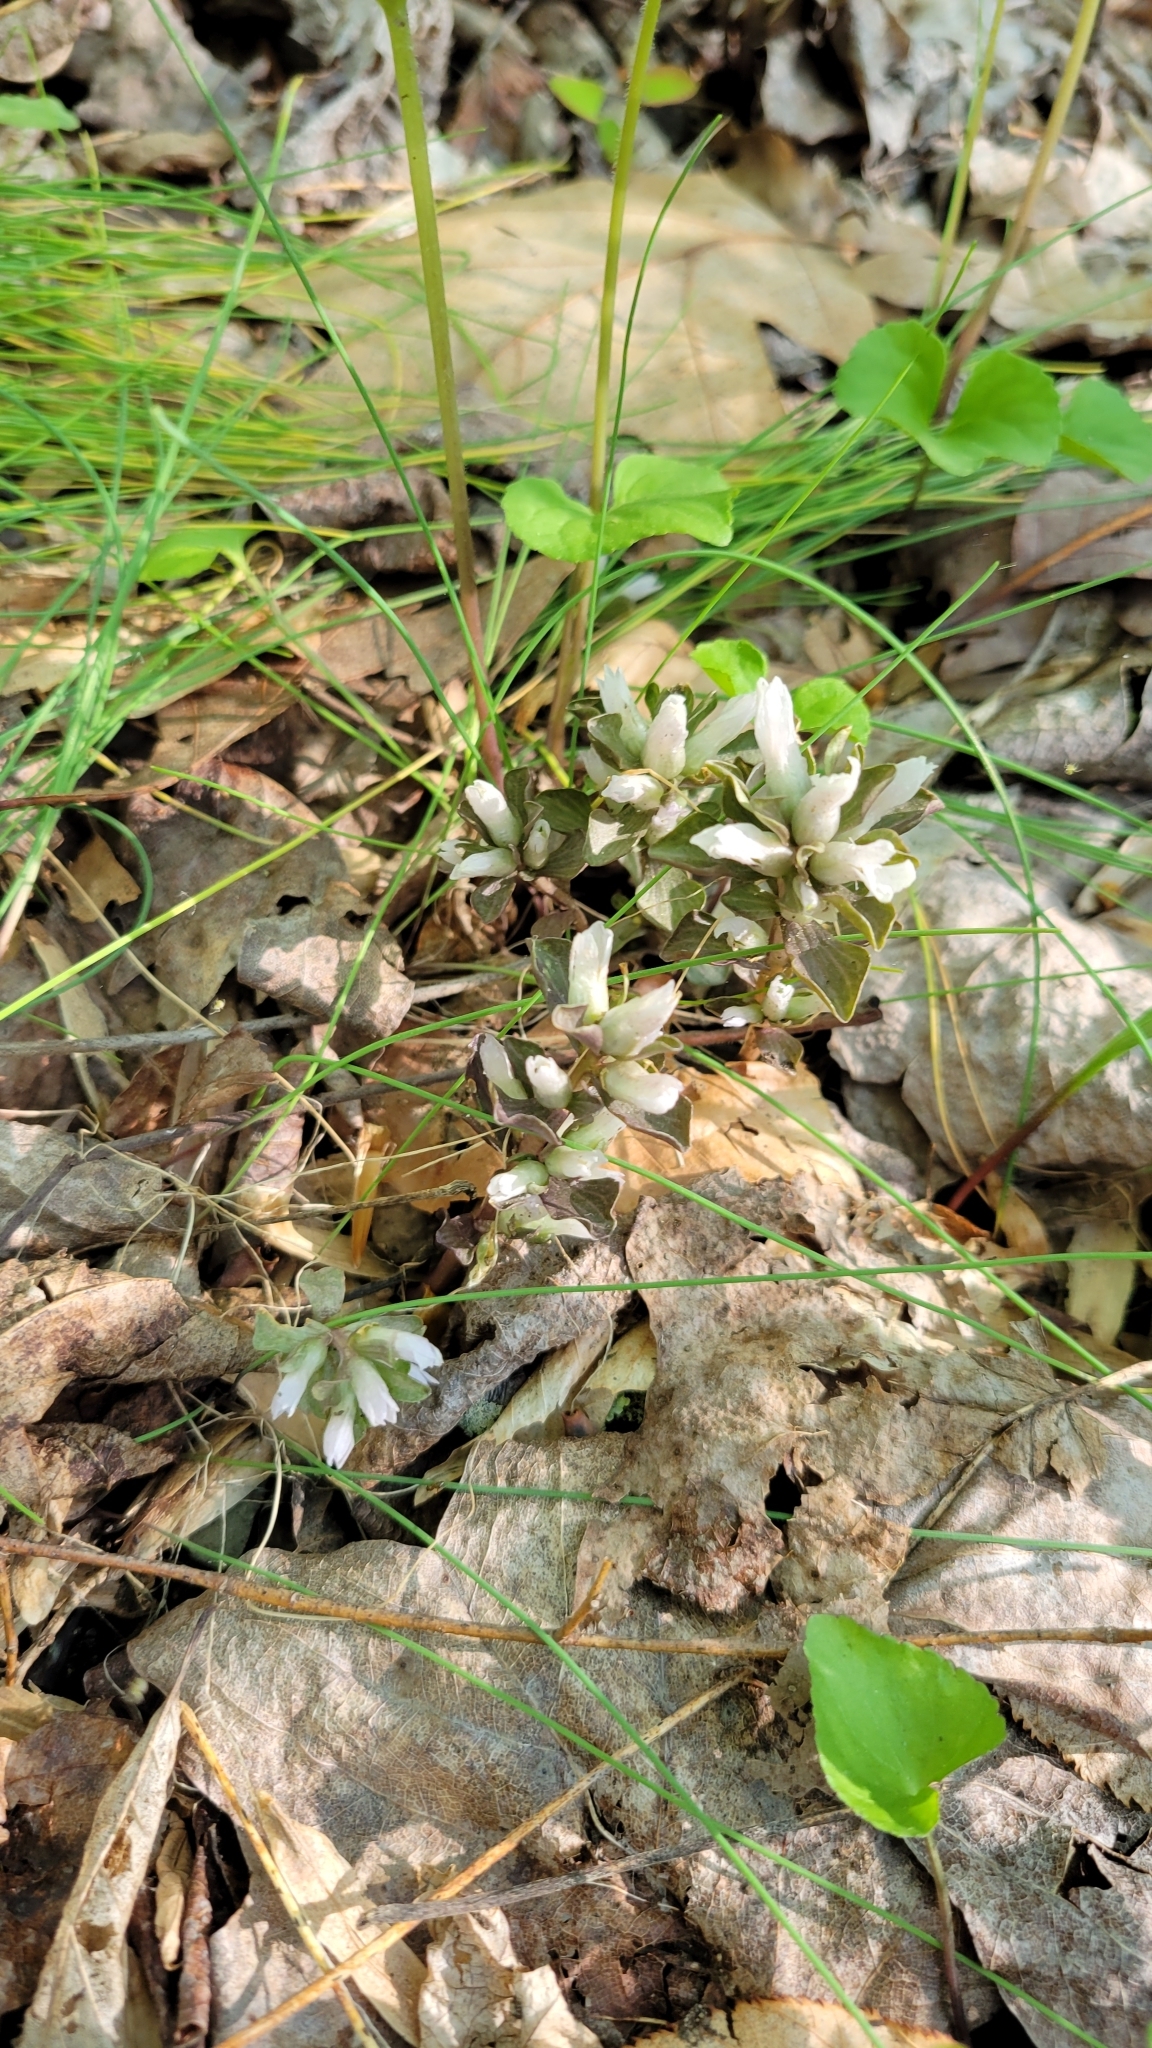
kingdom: Plantae
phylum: Tracheophyta
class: Magnoliopsida
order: Gentianales
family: Gentianaceae
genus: Obolaria
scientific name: Obolaria virginica
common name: Pennywort
